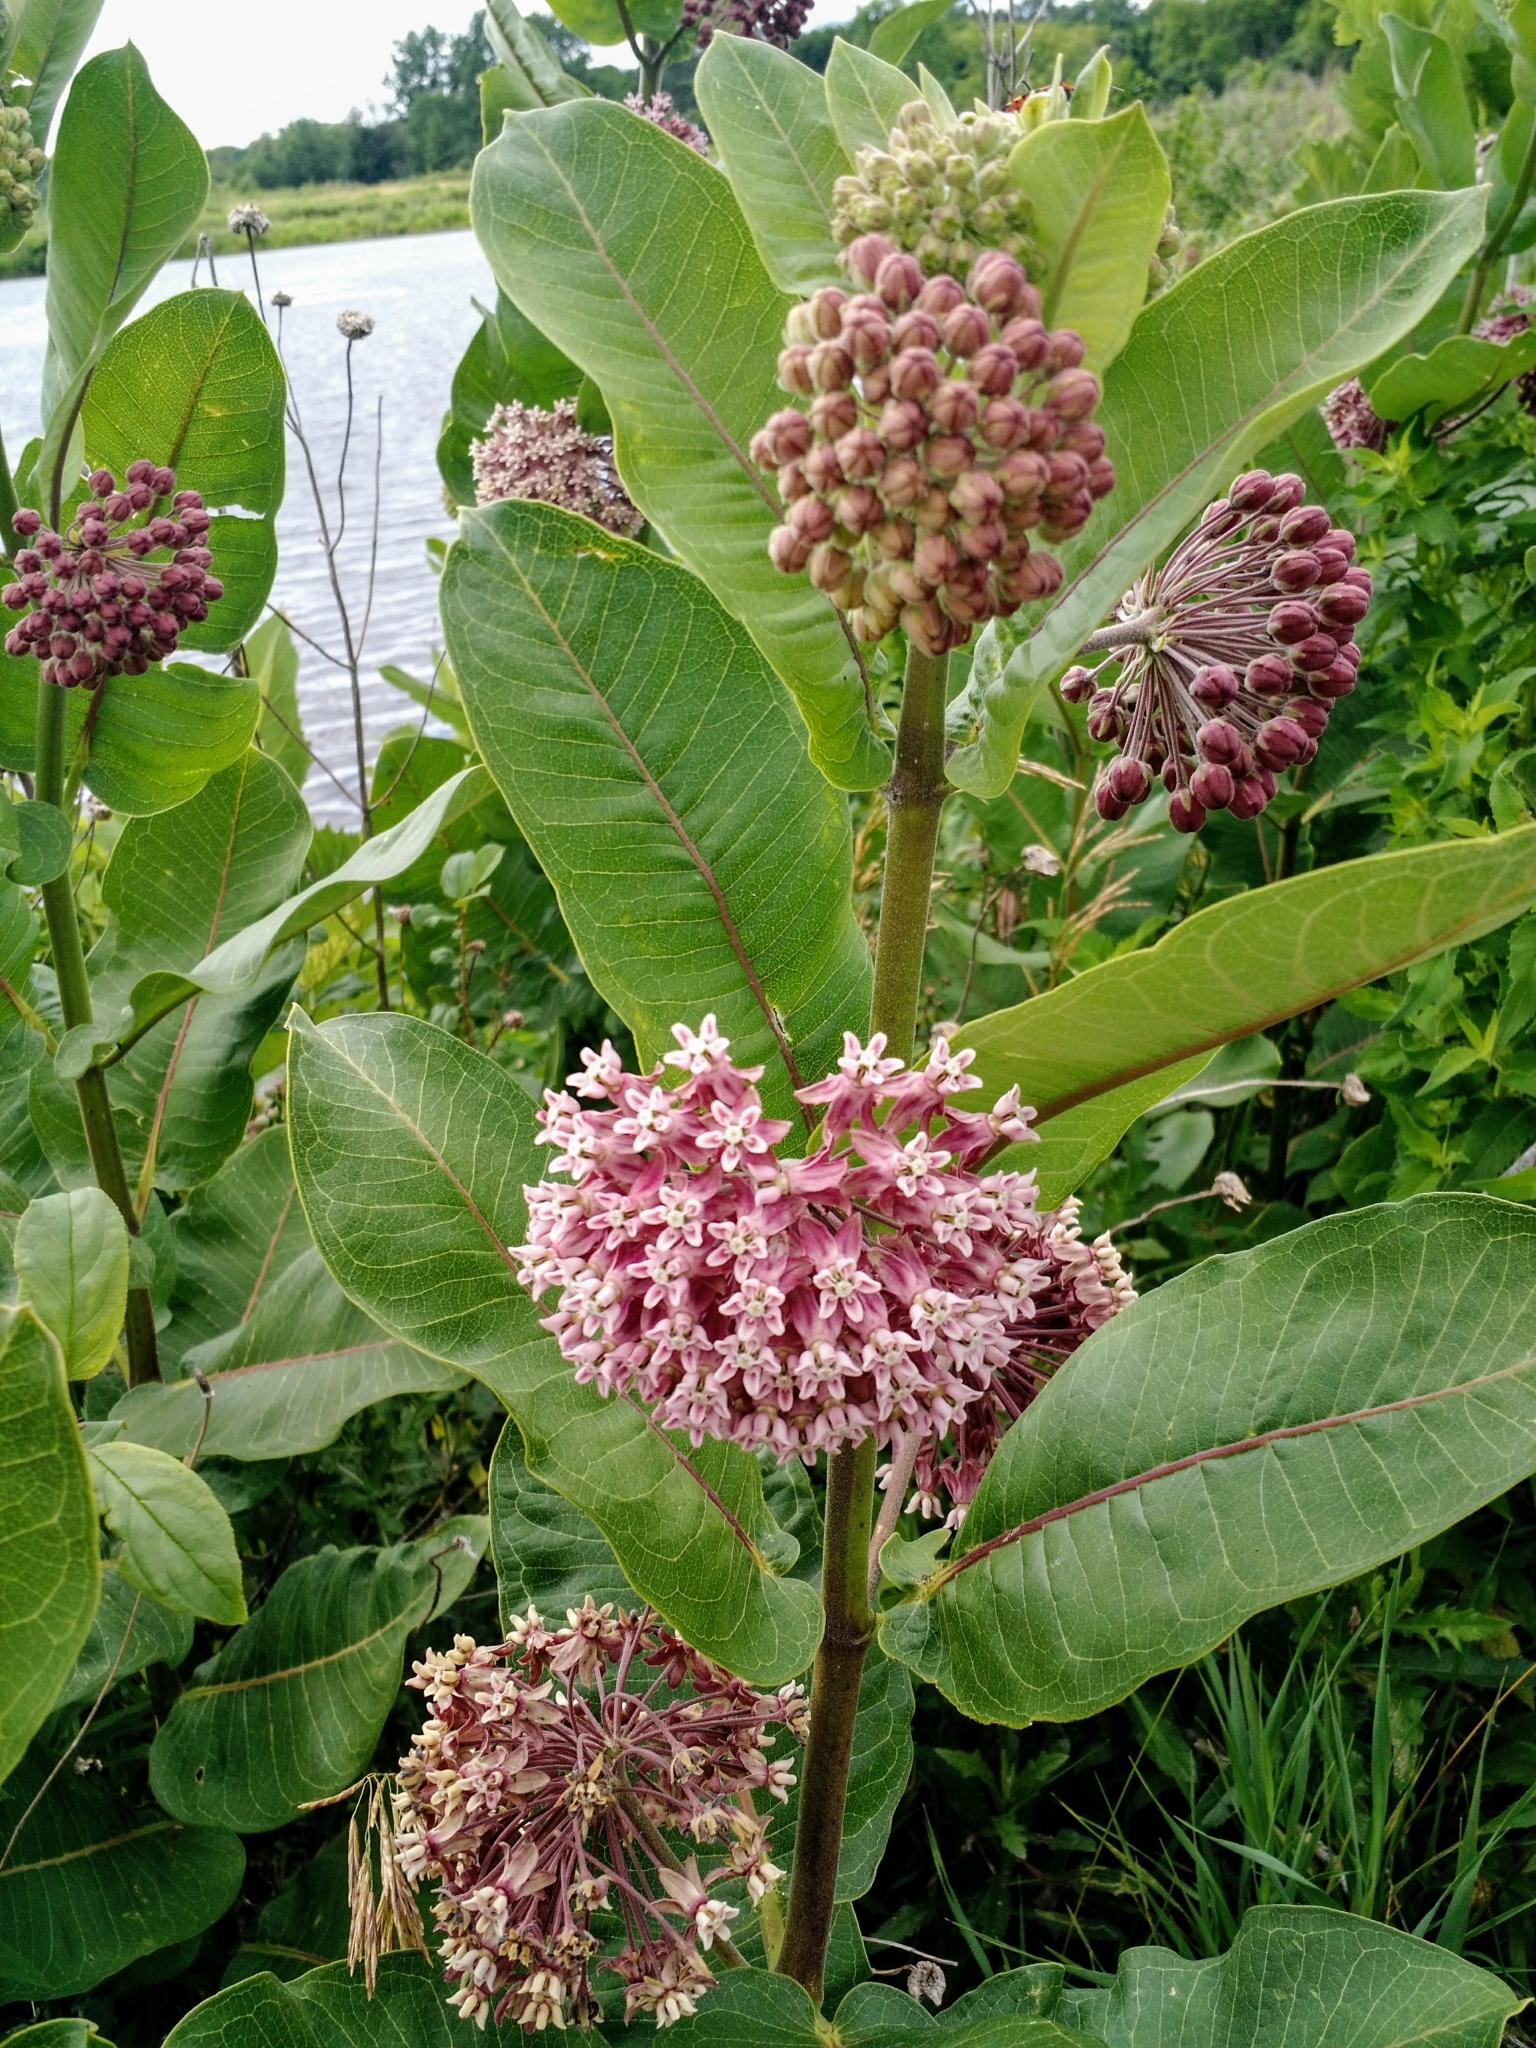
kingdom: Plantae
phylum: Tracheophyta
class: Magnoliopsida
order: Gentianales
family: Apocynaceae
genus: Asclepias
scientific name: Asclepias syriaca
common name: Common milkweed
